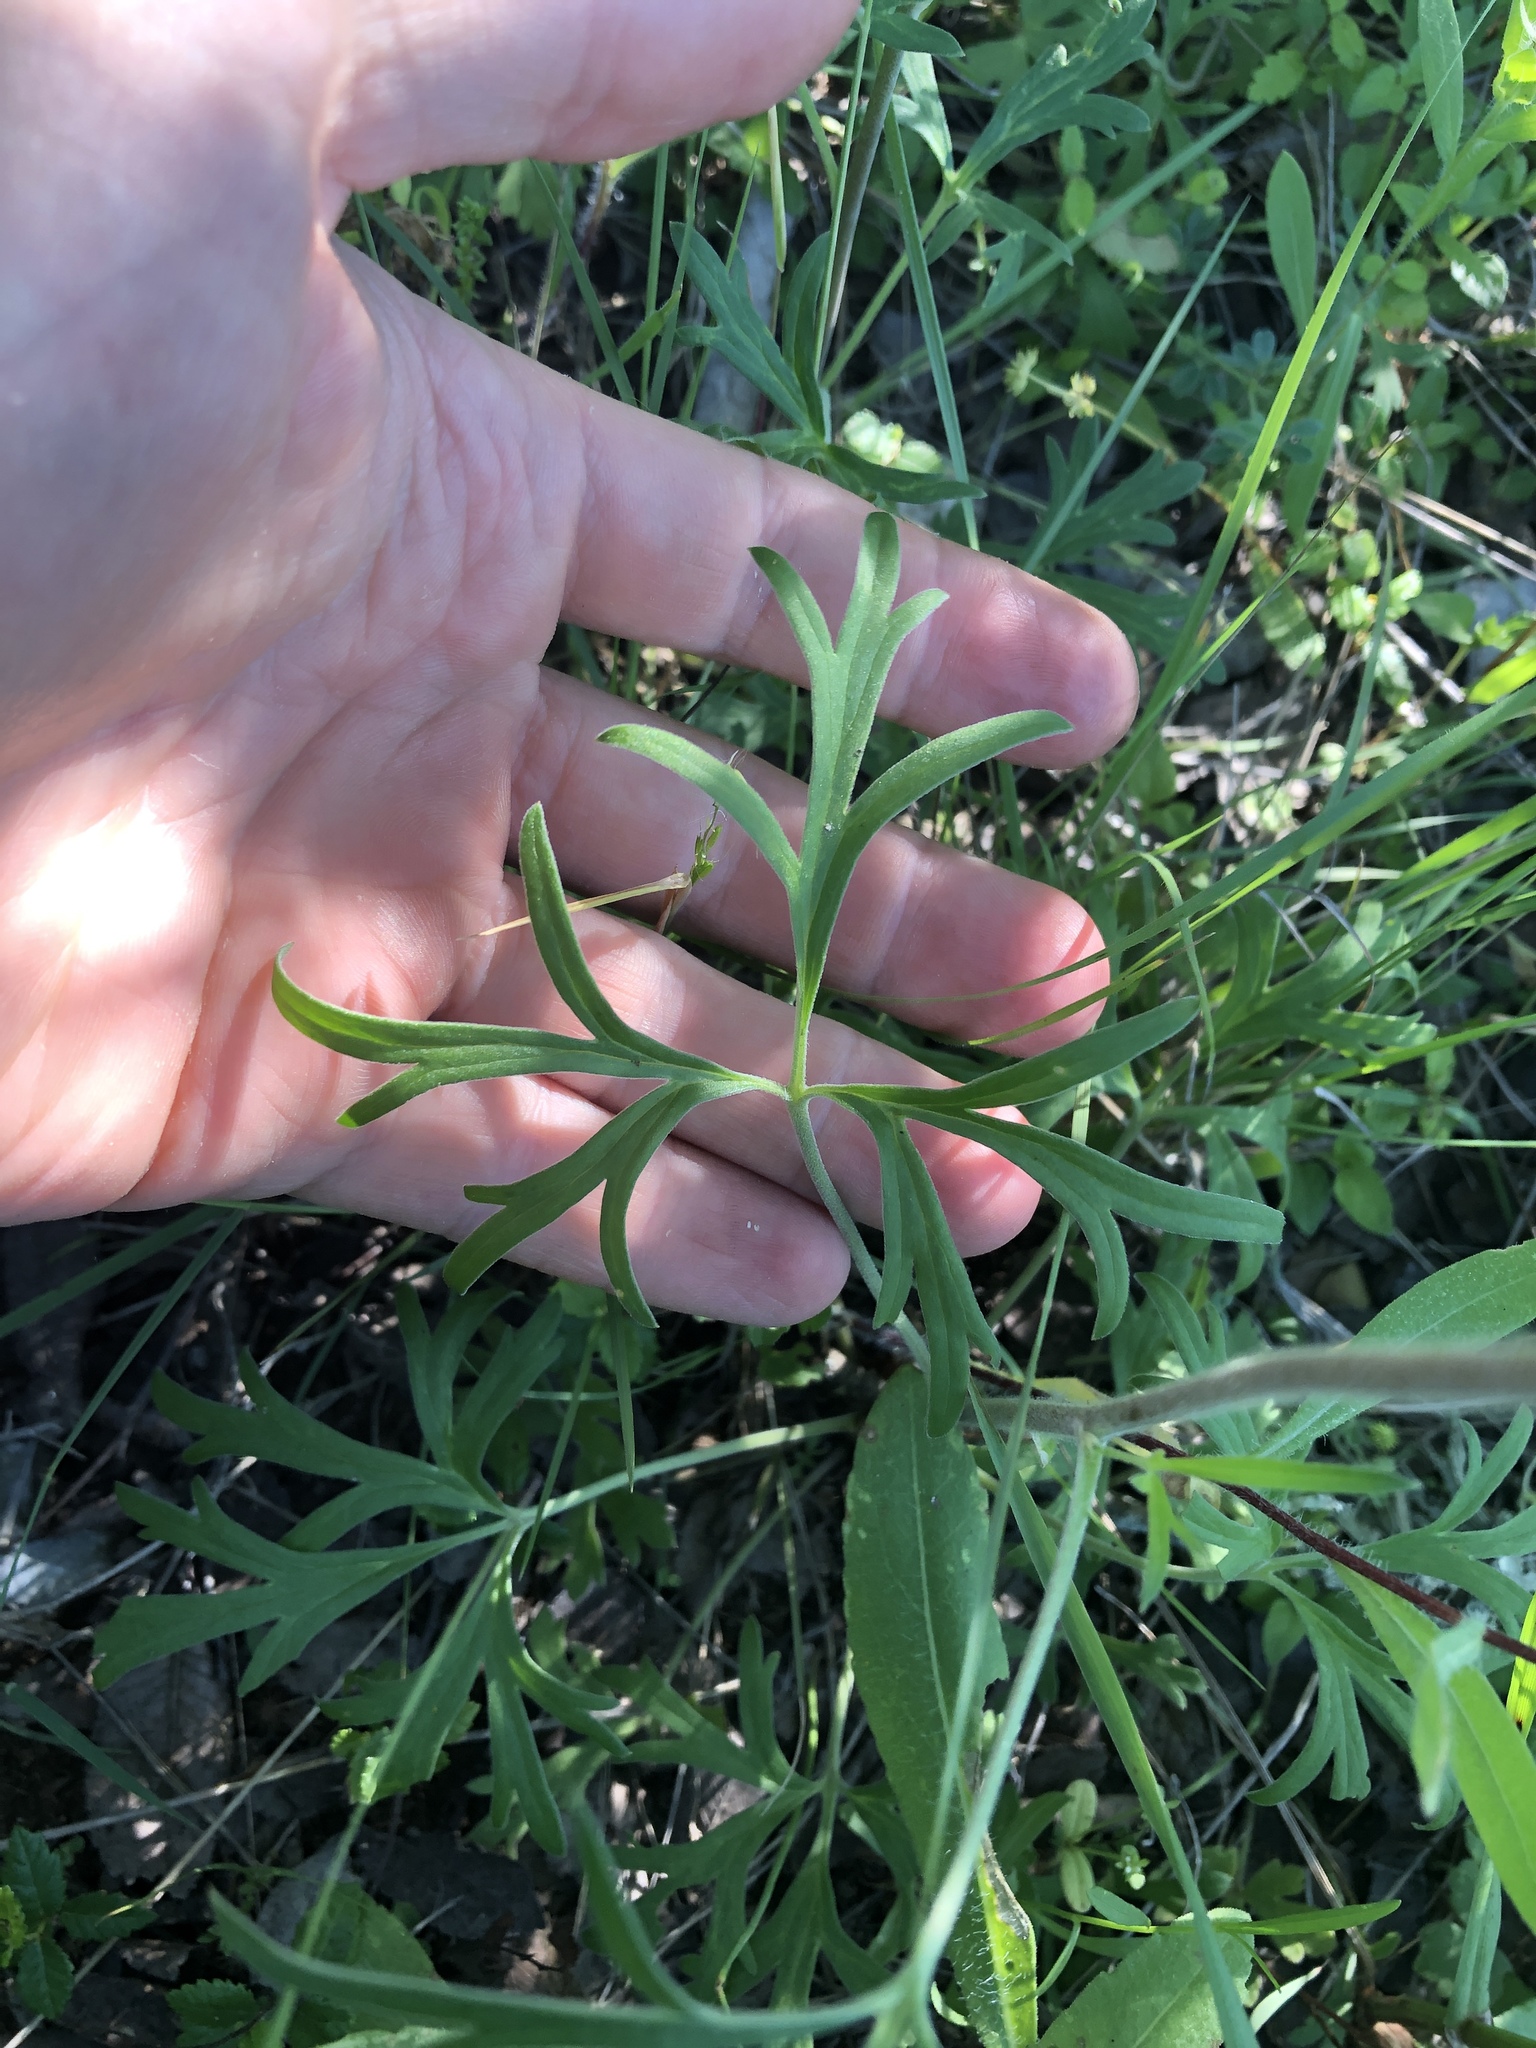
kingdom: Plantae
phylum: Tracheophyta
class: Magnoliopsida
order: Ranunculales
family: Ranunculaceae
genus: Delphinium
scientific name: Delphinium carolinianum
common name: Carolina larkspur
